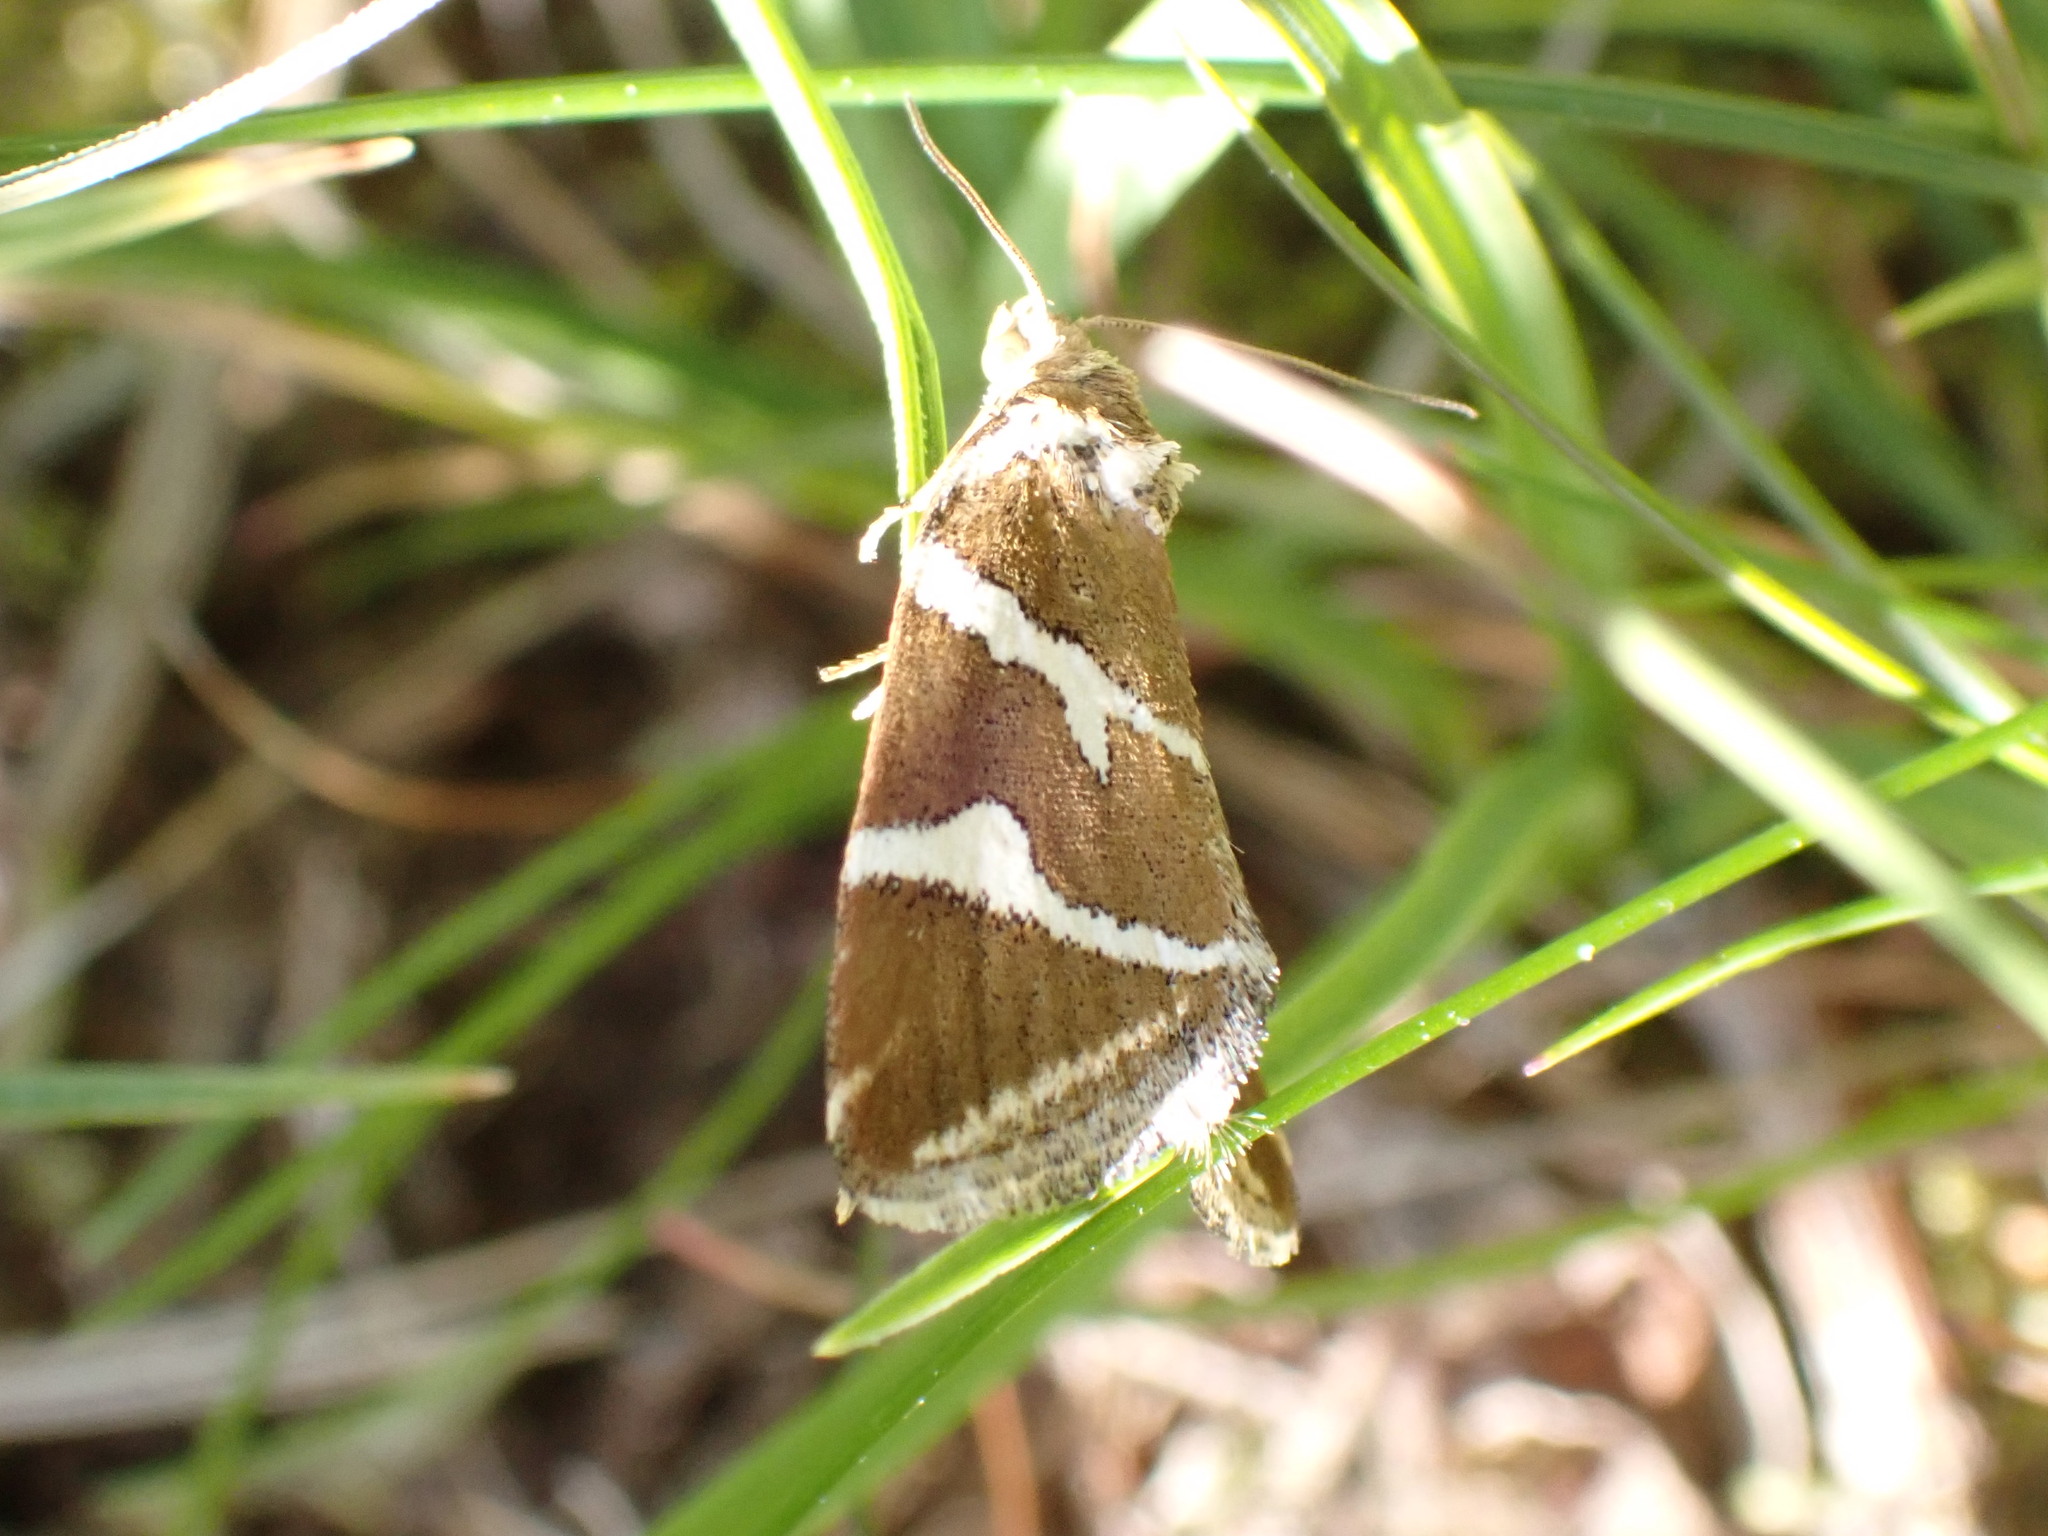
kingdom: Animalia
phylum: Arthropoda
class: Insecta
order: Lepidoptera
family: Noctuidae
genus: Deltote
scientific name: Deltote bankiana
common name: Silver barred
